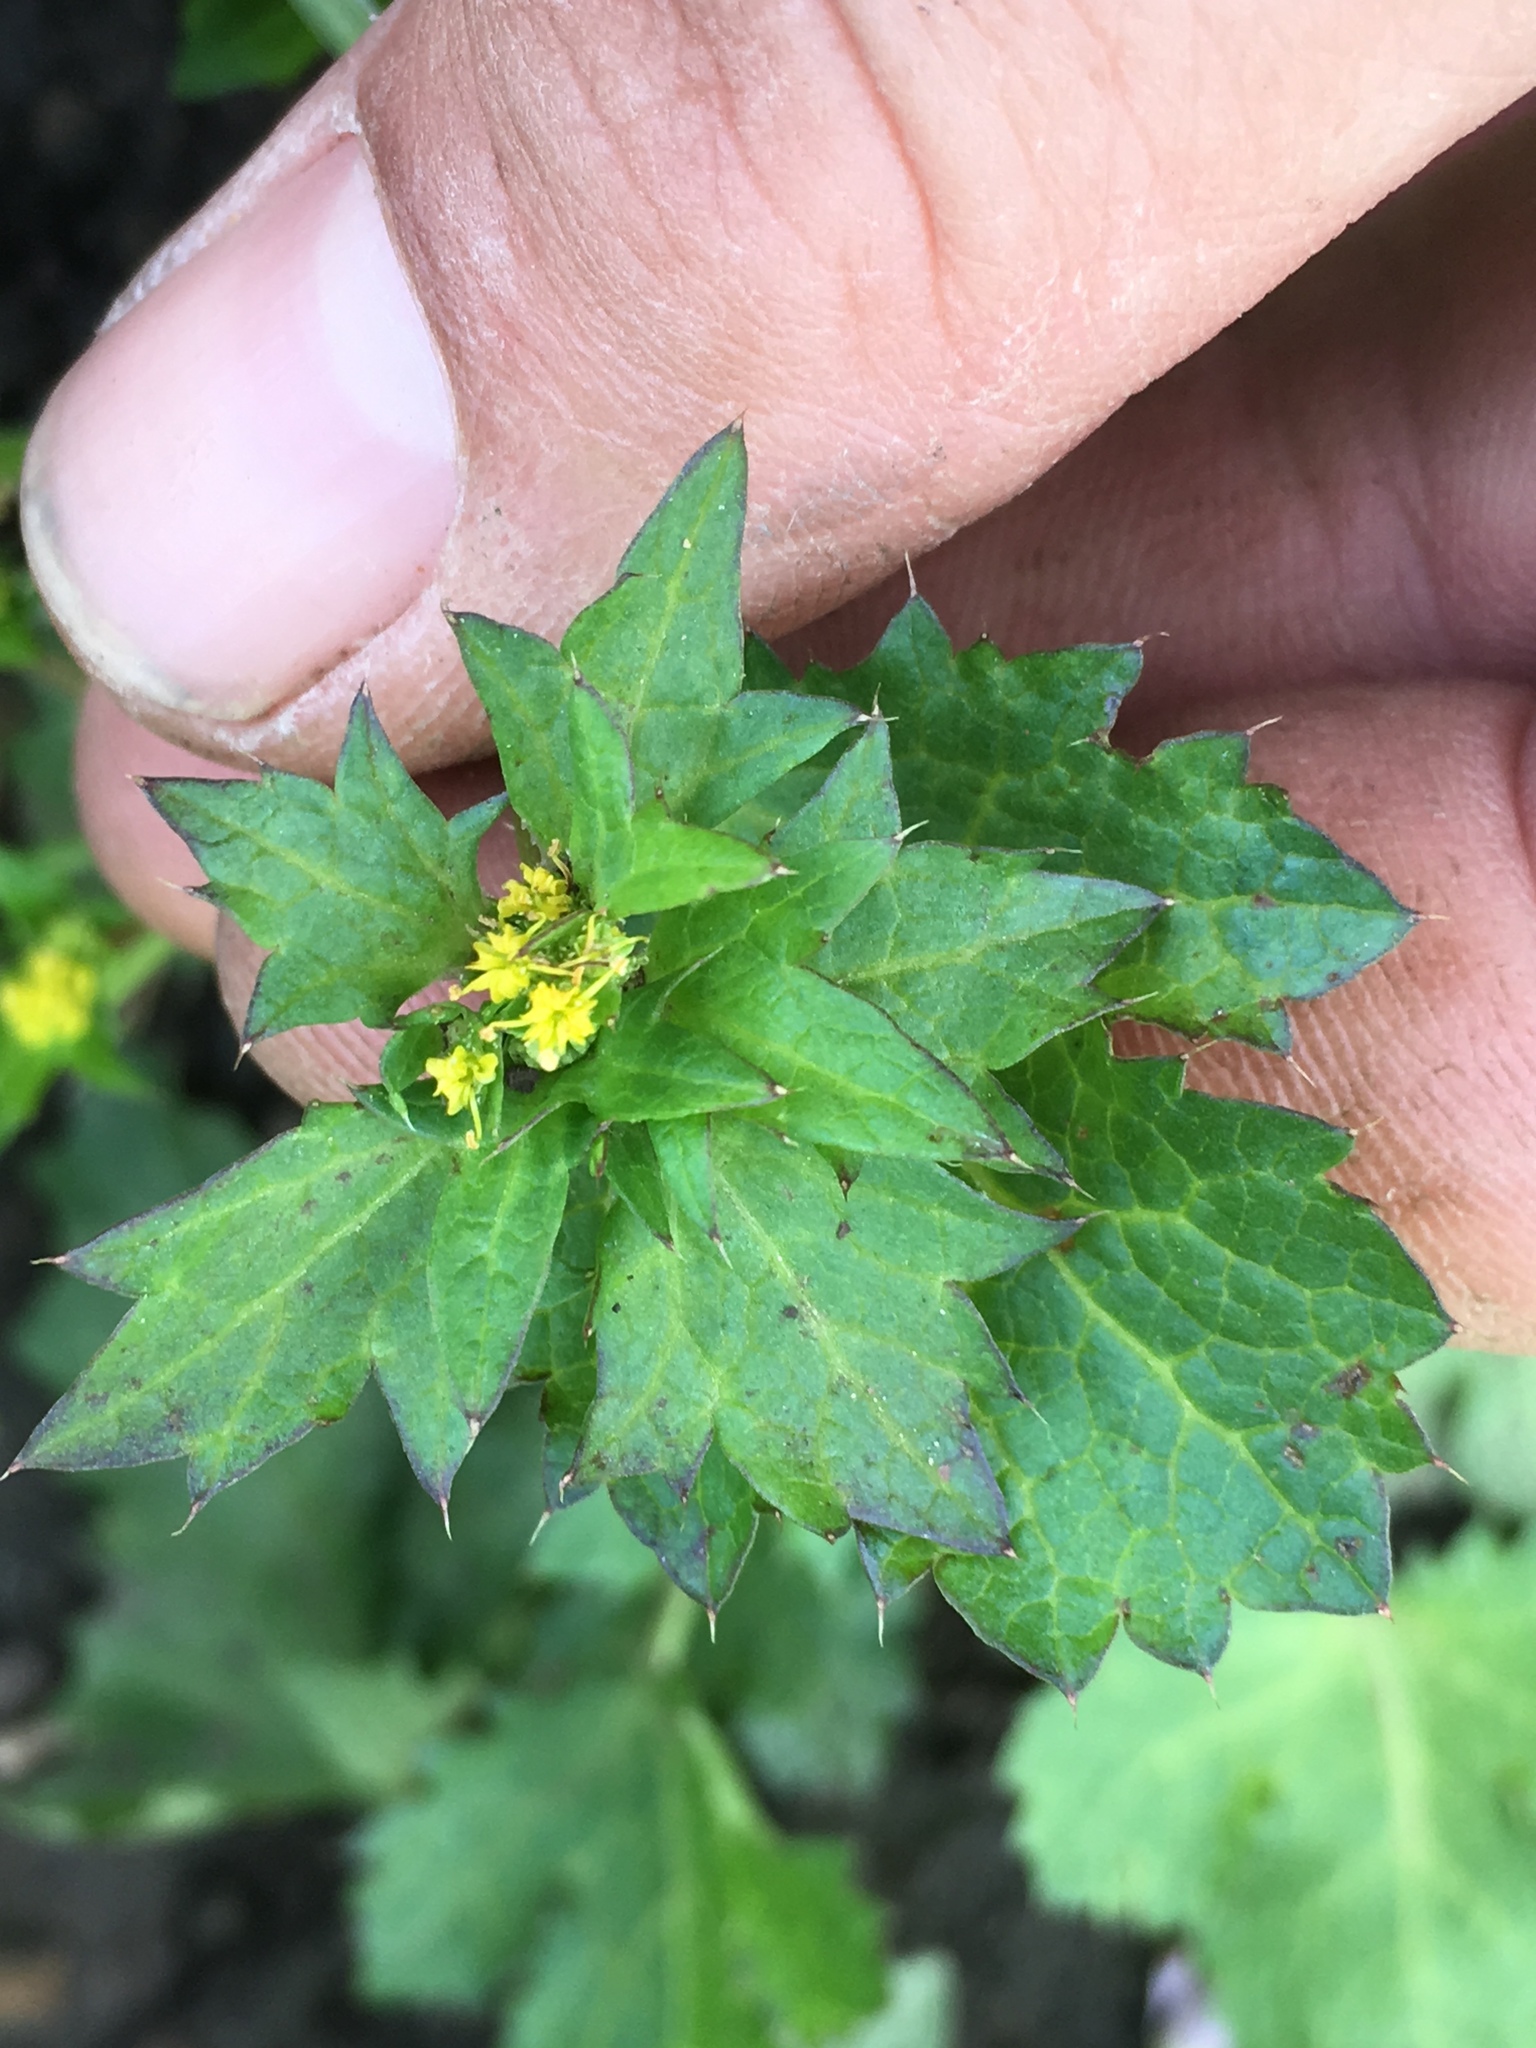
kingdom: Plantae
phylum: Tracheophyta
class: Magnoliopsida
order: Apiales
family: Apiaceae
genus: Sanicula
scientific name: Sanicula crassicaulis
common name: Western snakeroot
